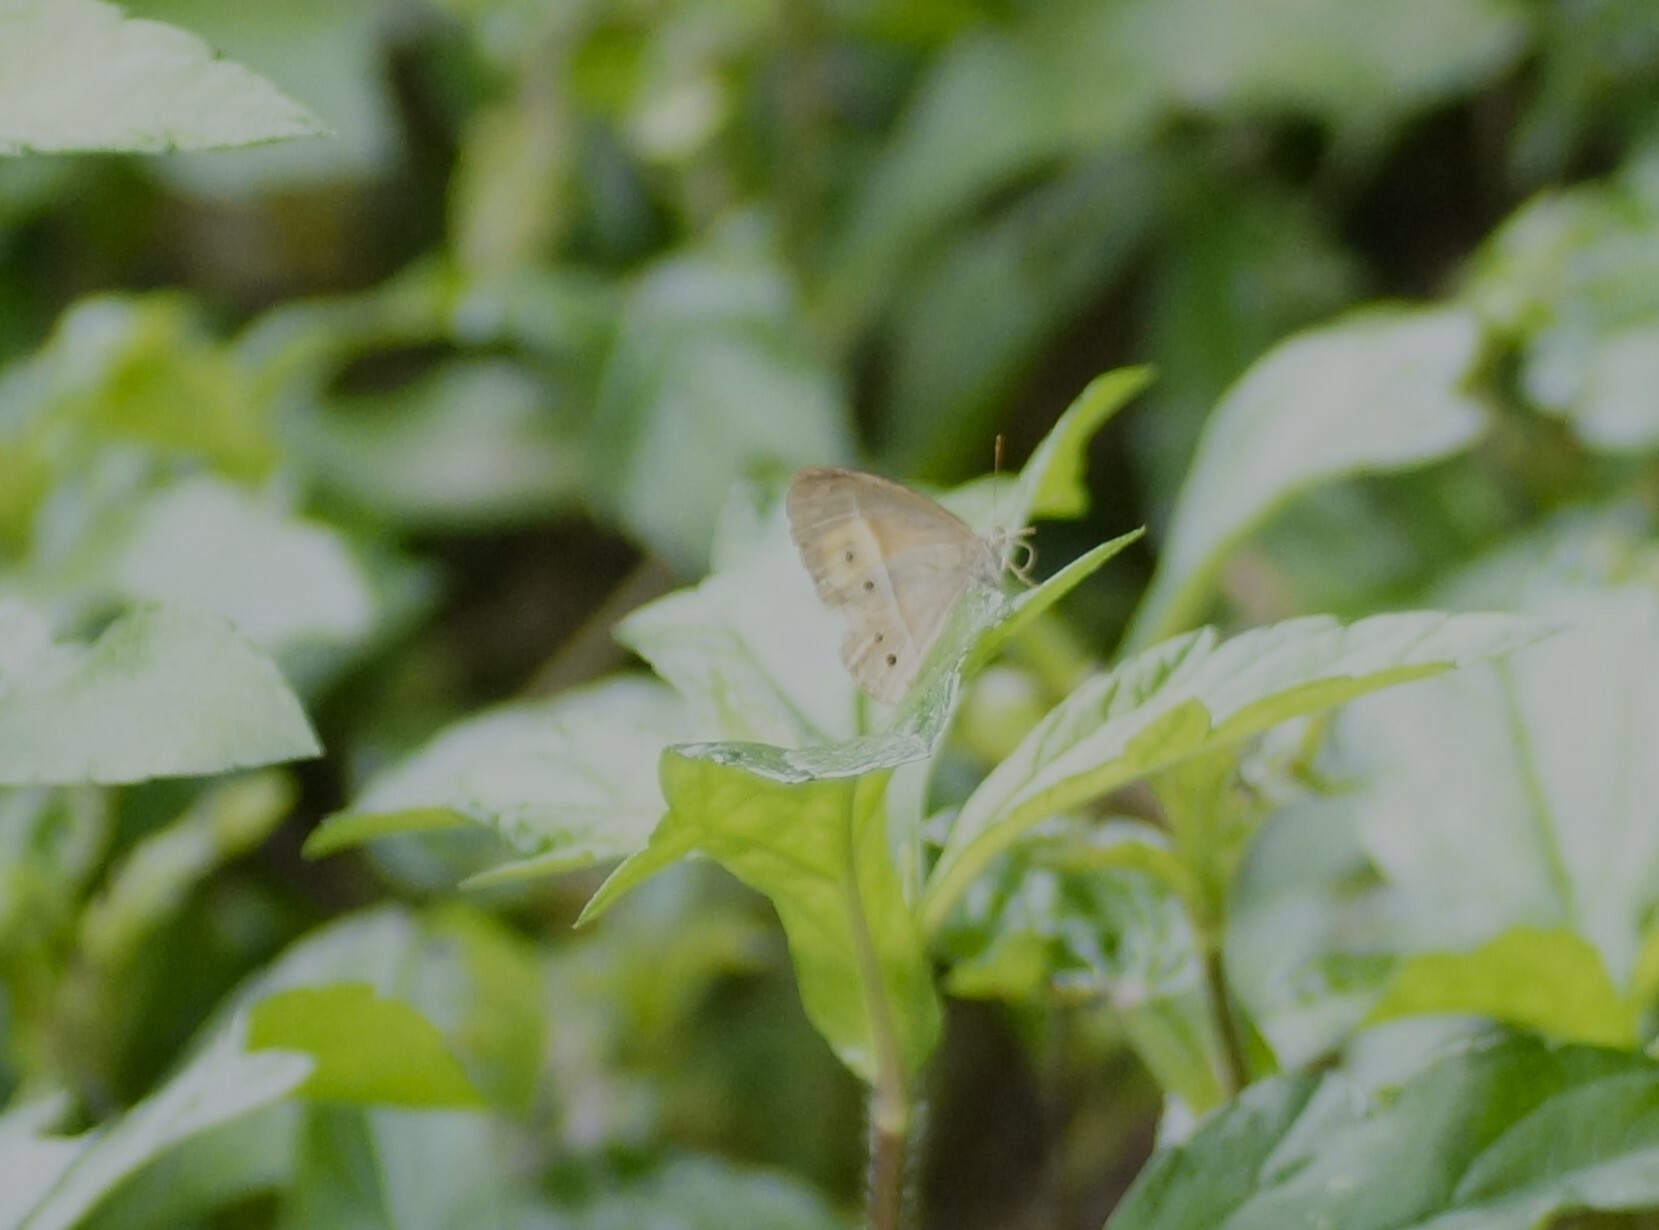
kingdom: Animalia
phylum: Arthropoda
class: Insecta
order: Lepidoptera
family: Nymphalidae
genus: Mycalesis
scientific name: Mycalesis terminus
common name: Orange bushbrown
